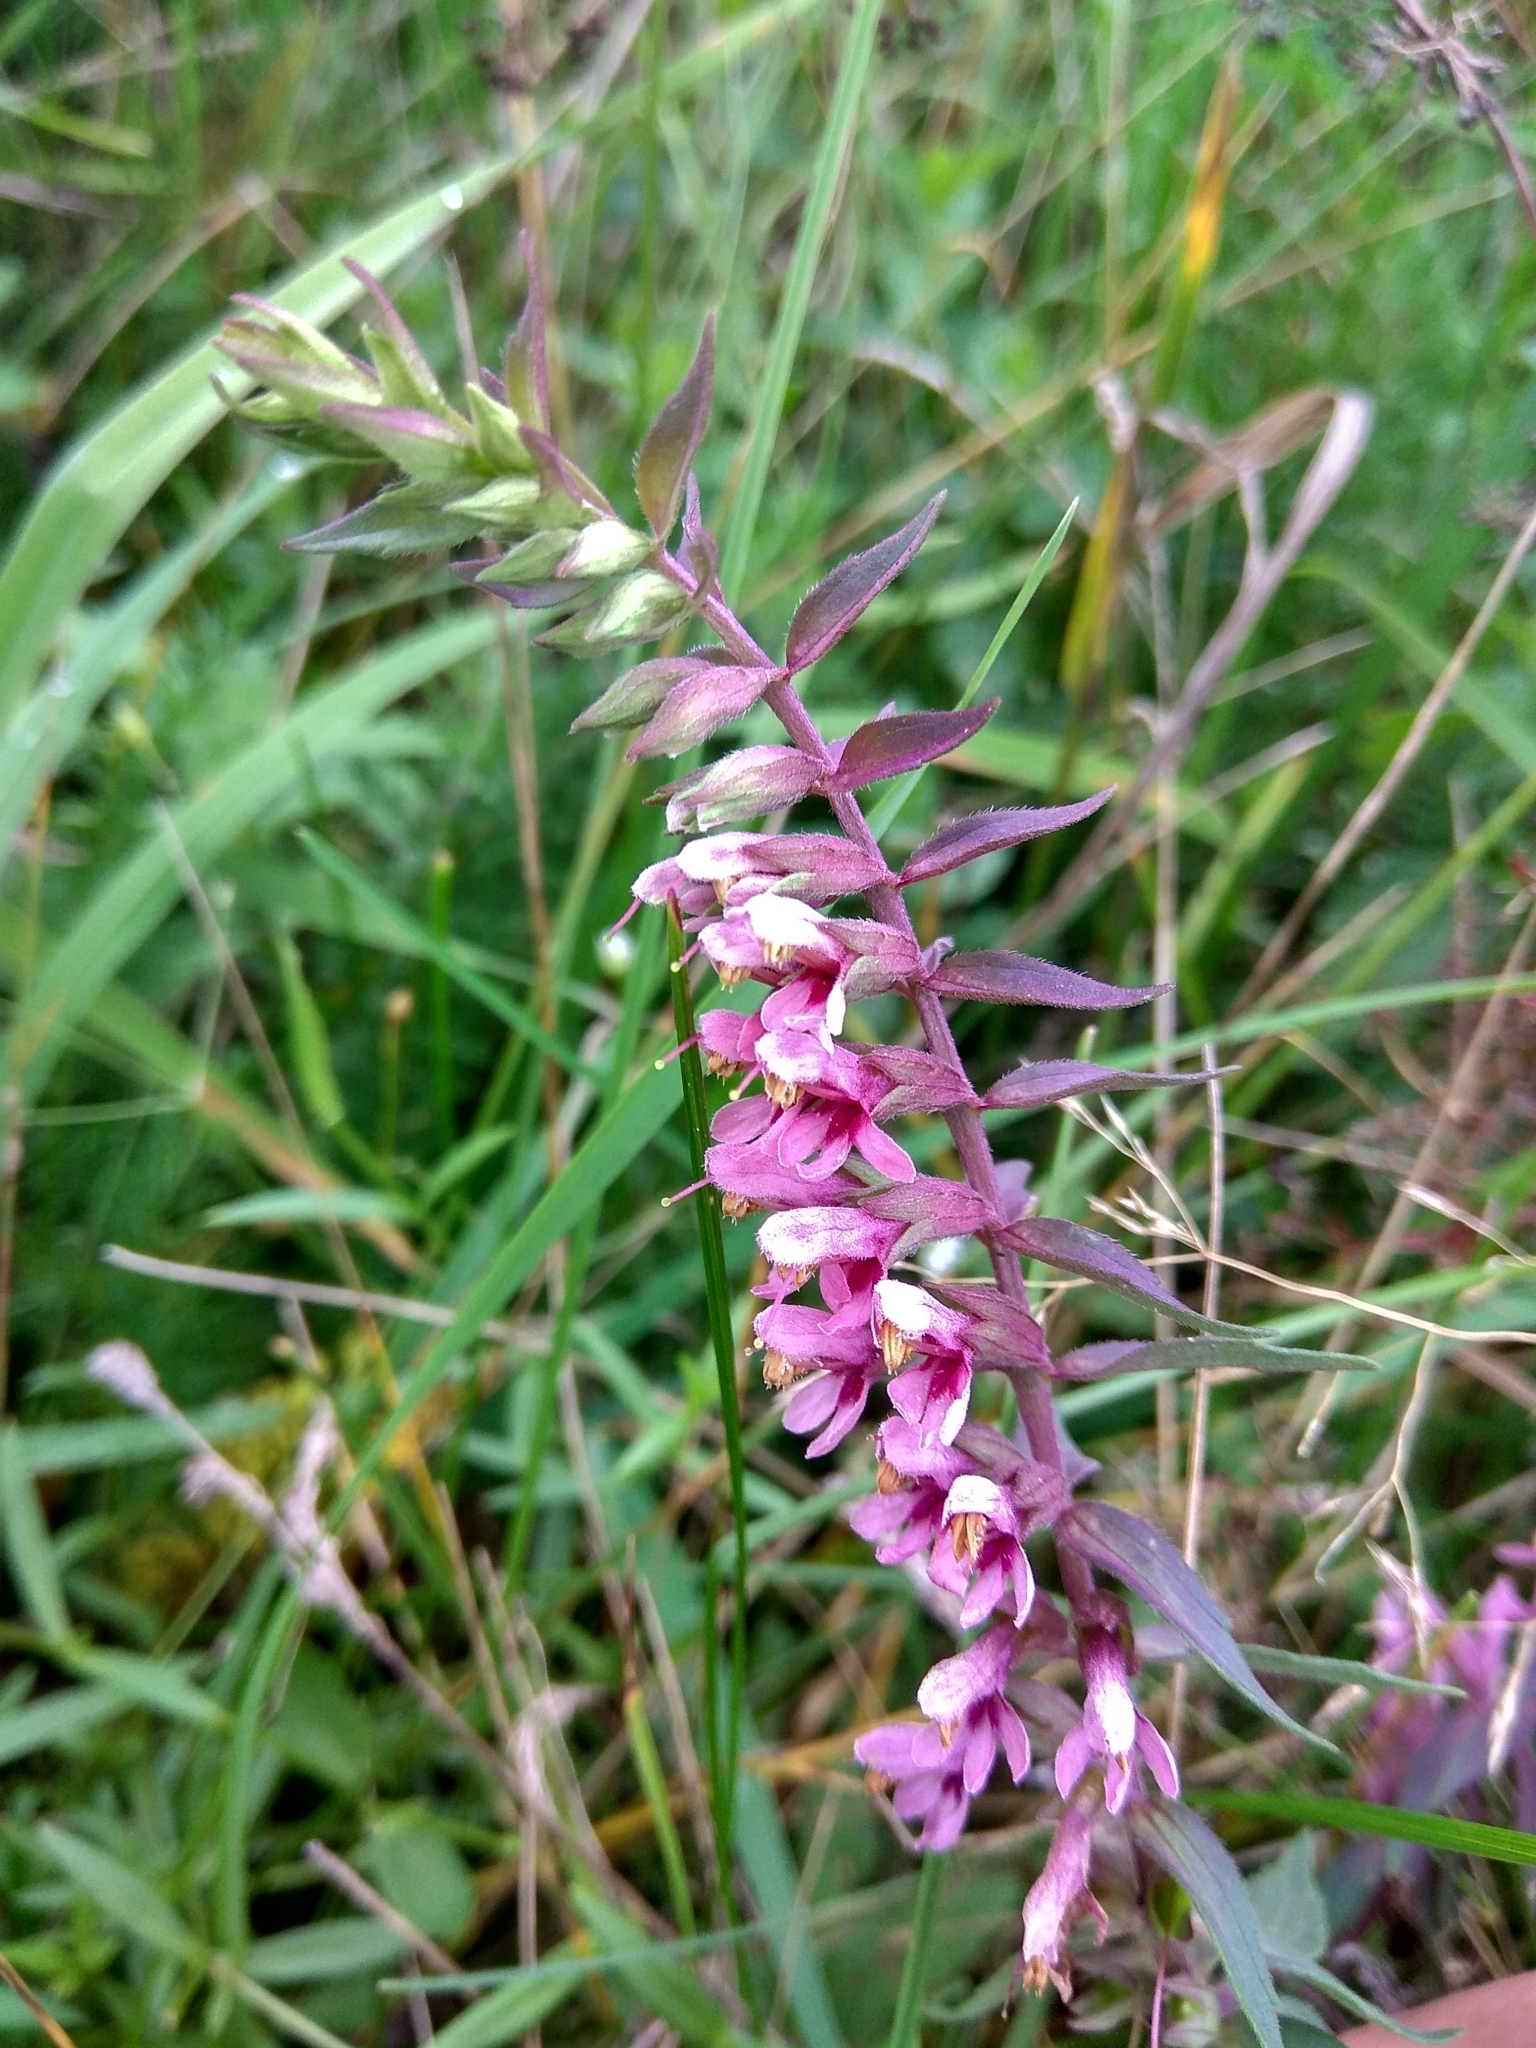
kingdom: Plantae
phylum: Tracheophyta
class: Magnoliopsida
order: Lamiales
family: Orobanchaceae
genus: Odontites
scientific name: Odontites vulgaris
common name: Broomrape
